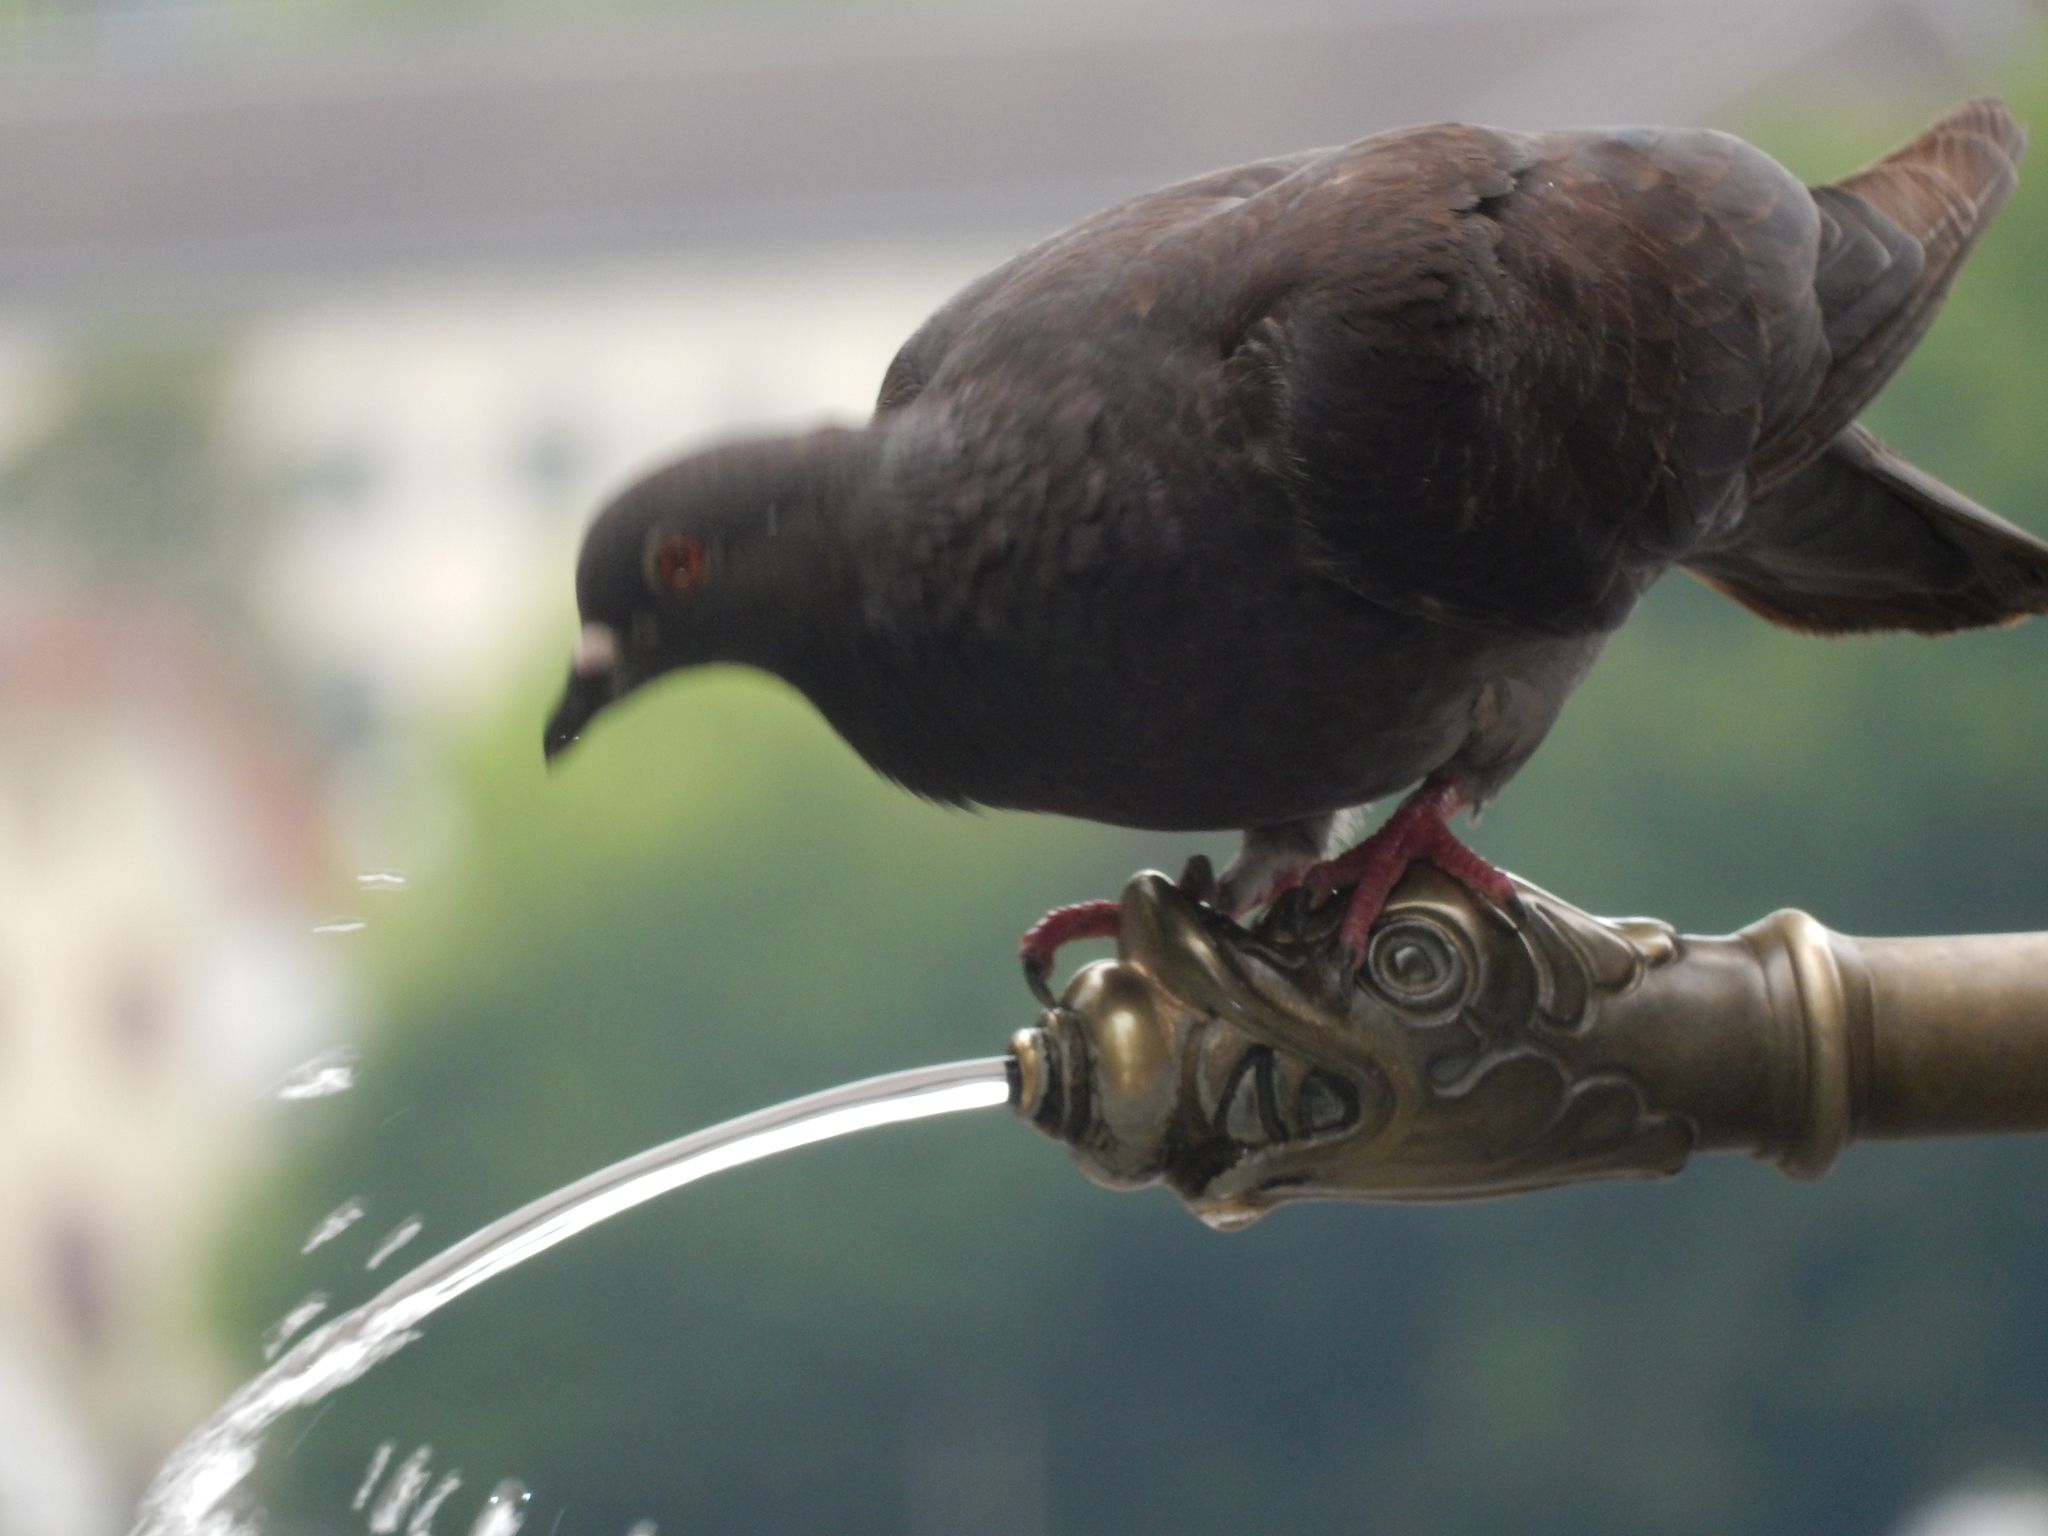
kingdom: Animalia
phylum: Chordata
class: Aves
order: Columbiformes
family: Columbidae
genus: Columba
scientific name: Columba livia
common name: Rock pigeon
